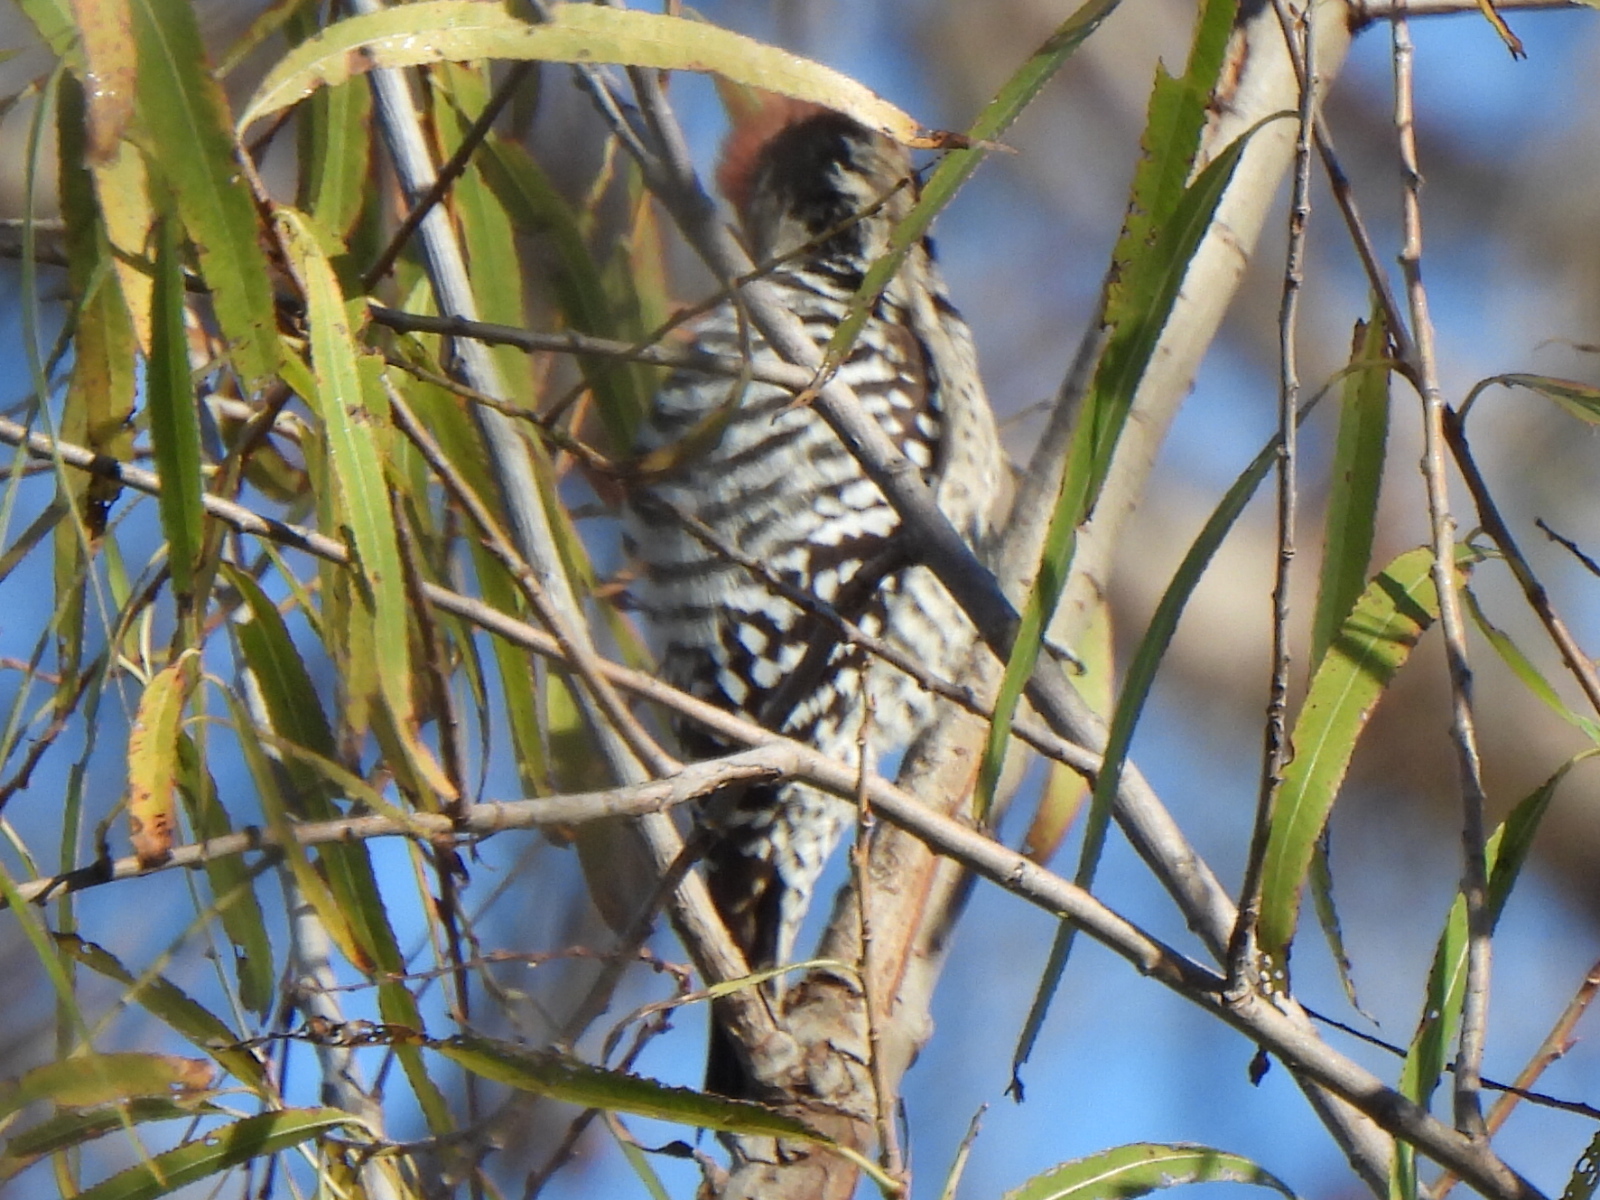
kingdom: Animalia
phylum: Chordata
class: Aves
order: Piciformes
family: Picidae
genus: Dryobates
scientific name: Dryobates scalaris
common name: Ladder-backed woodpecker
